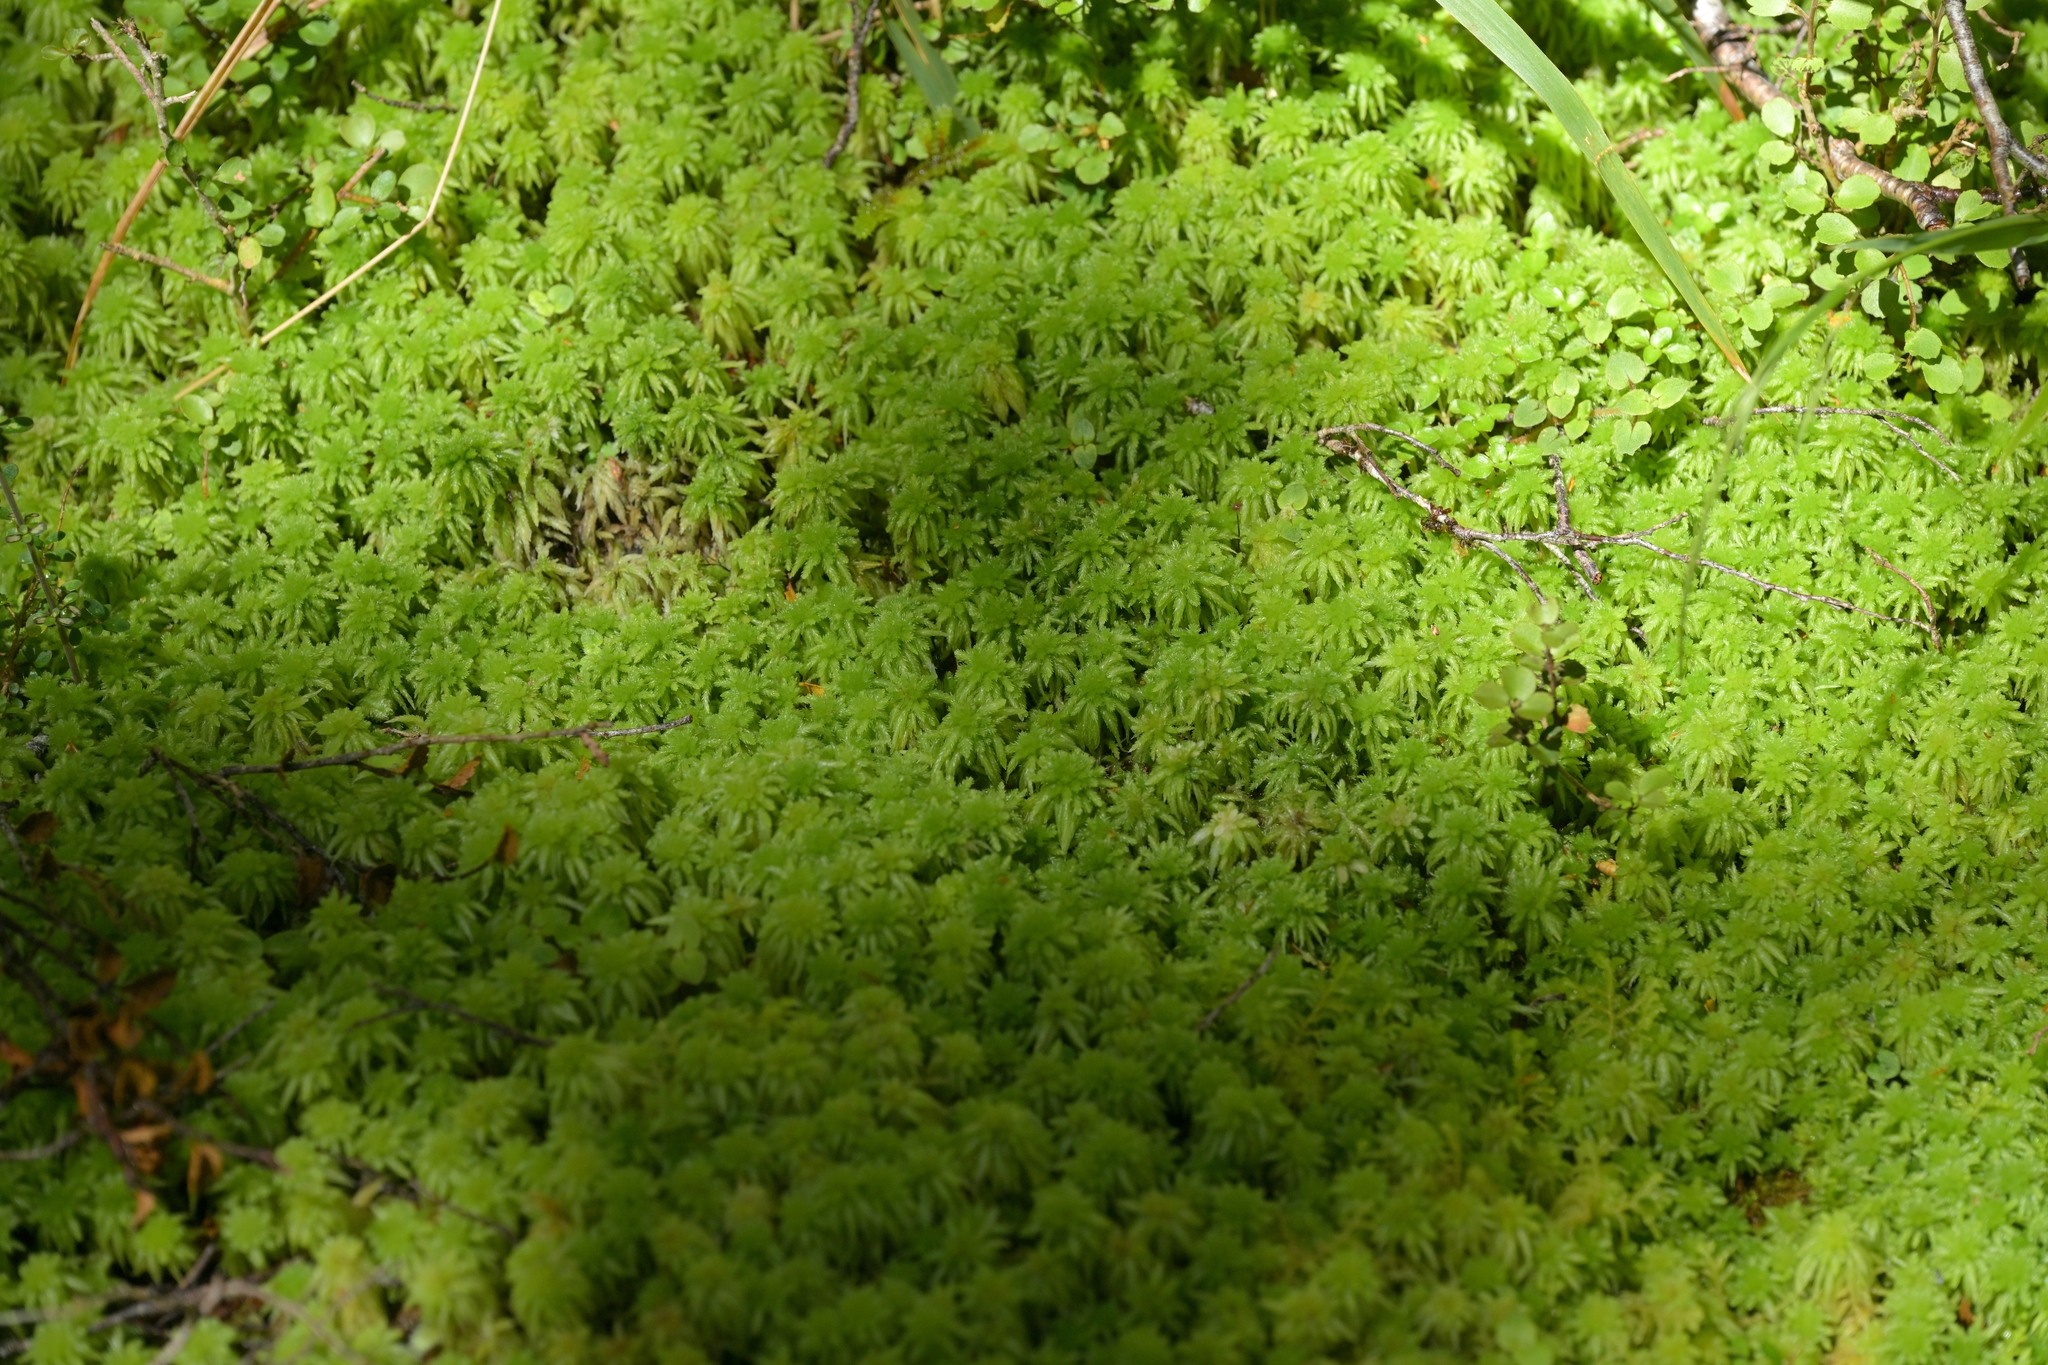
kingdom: Plantae
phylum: Bryophyta
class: Sphagnopsida
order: Sphagnales
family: Sphagnaceae
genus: Sphagnum
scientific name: Sphagnum cristatum
